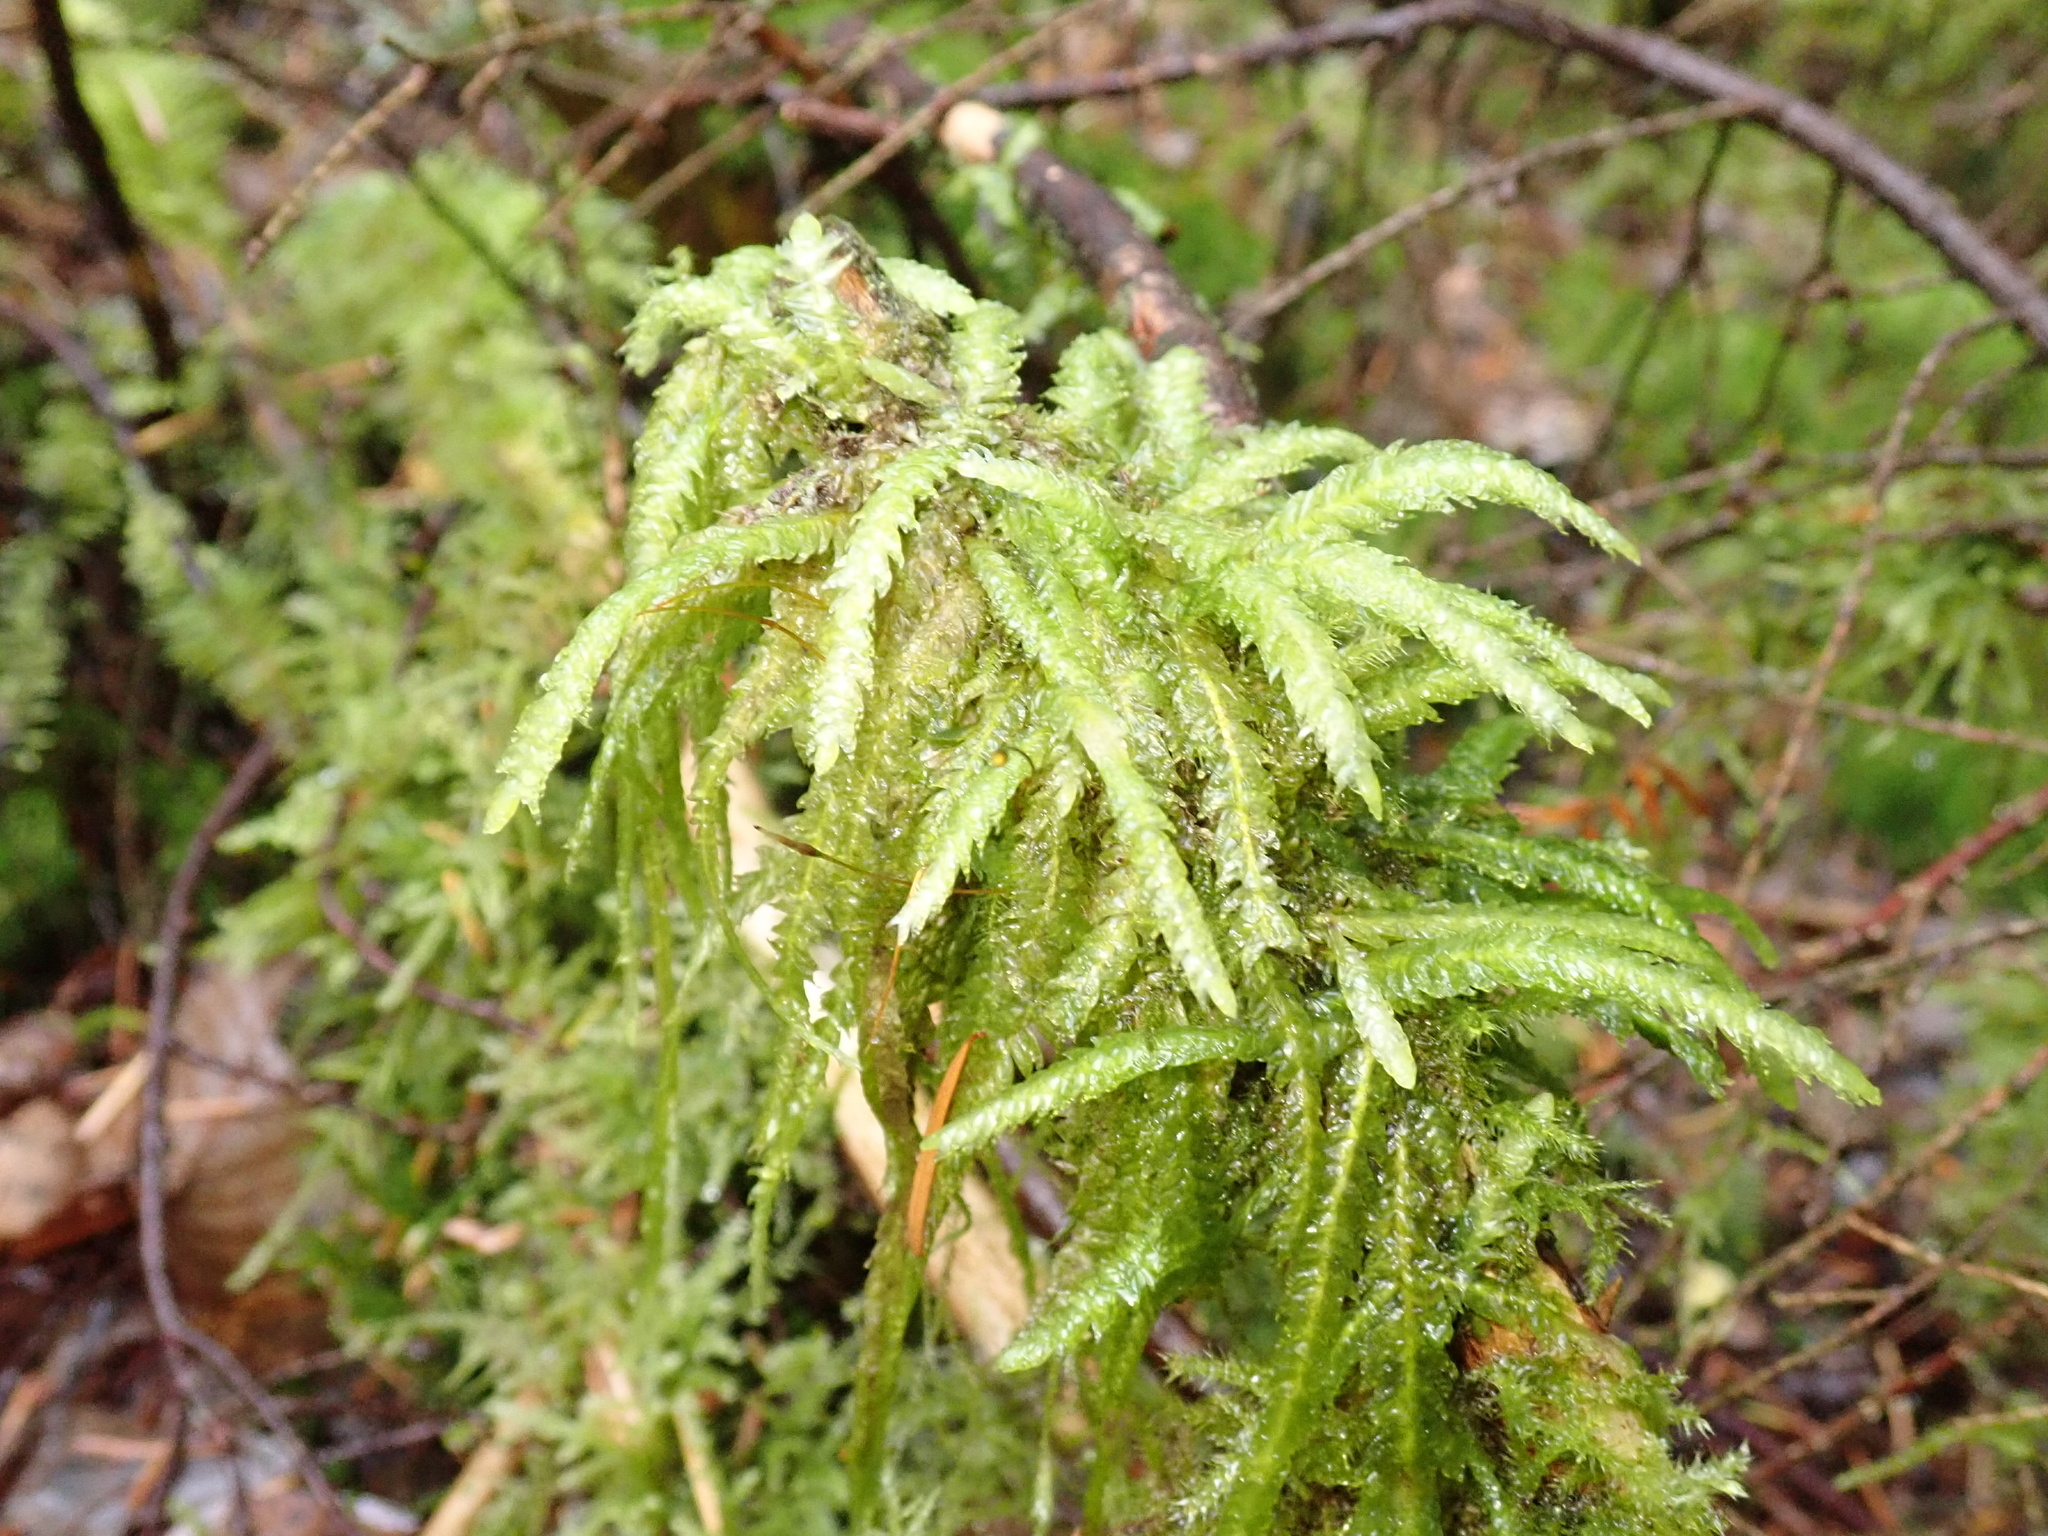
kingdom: Plantae
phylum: Bryophyta
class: Bryopsida
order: Hypnales
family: Plagiotheciaceae
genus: Plagiothecium
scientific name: Plagiothecium undulatum
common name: Waved silk-moss
